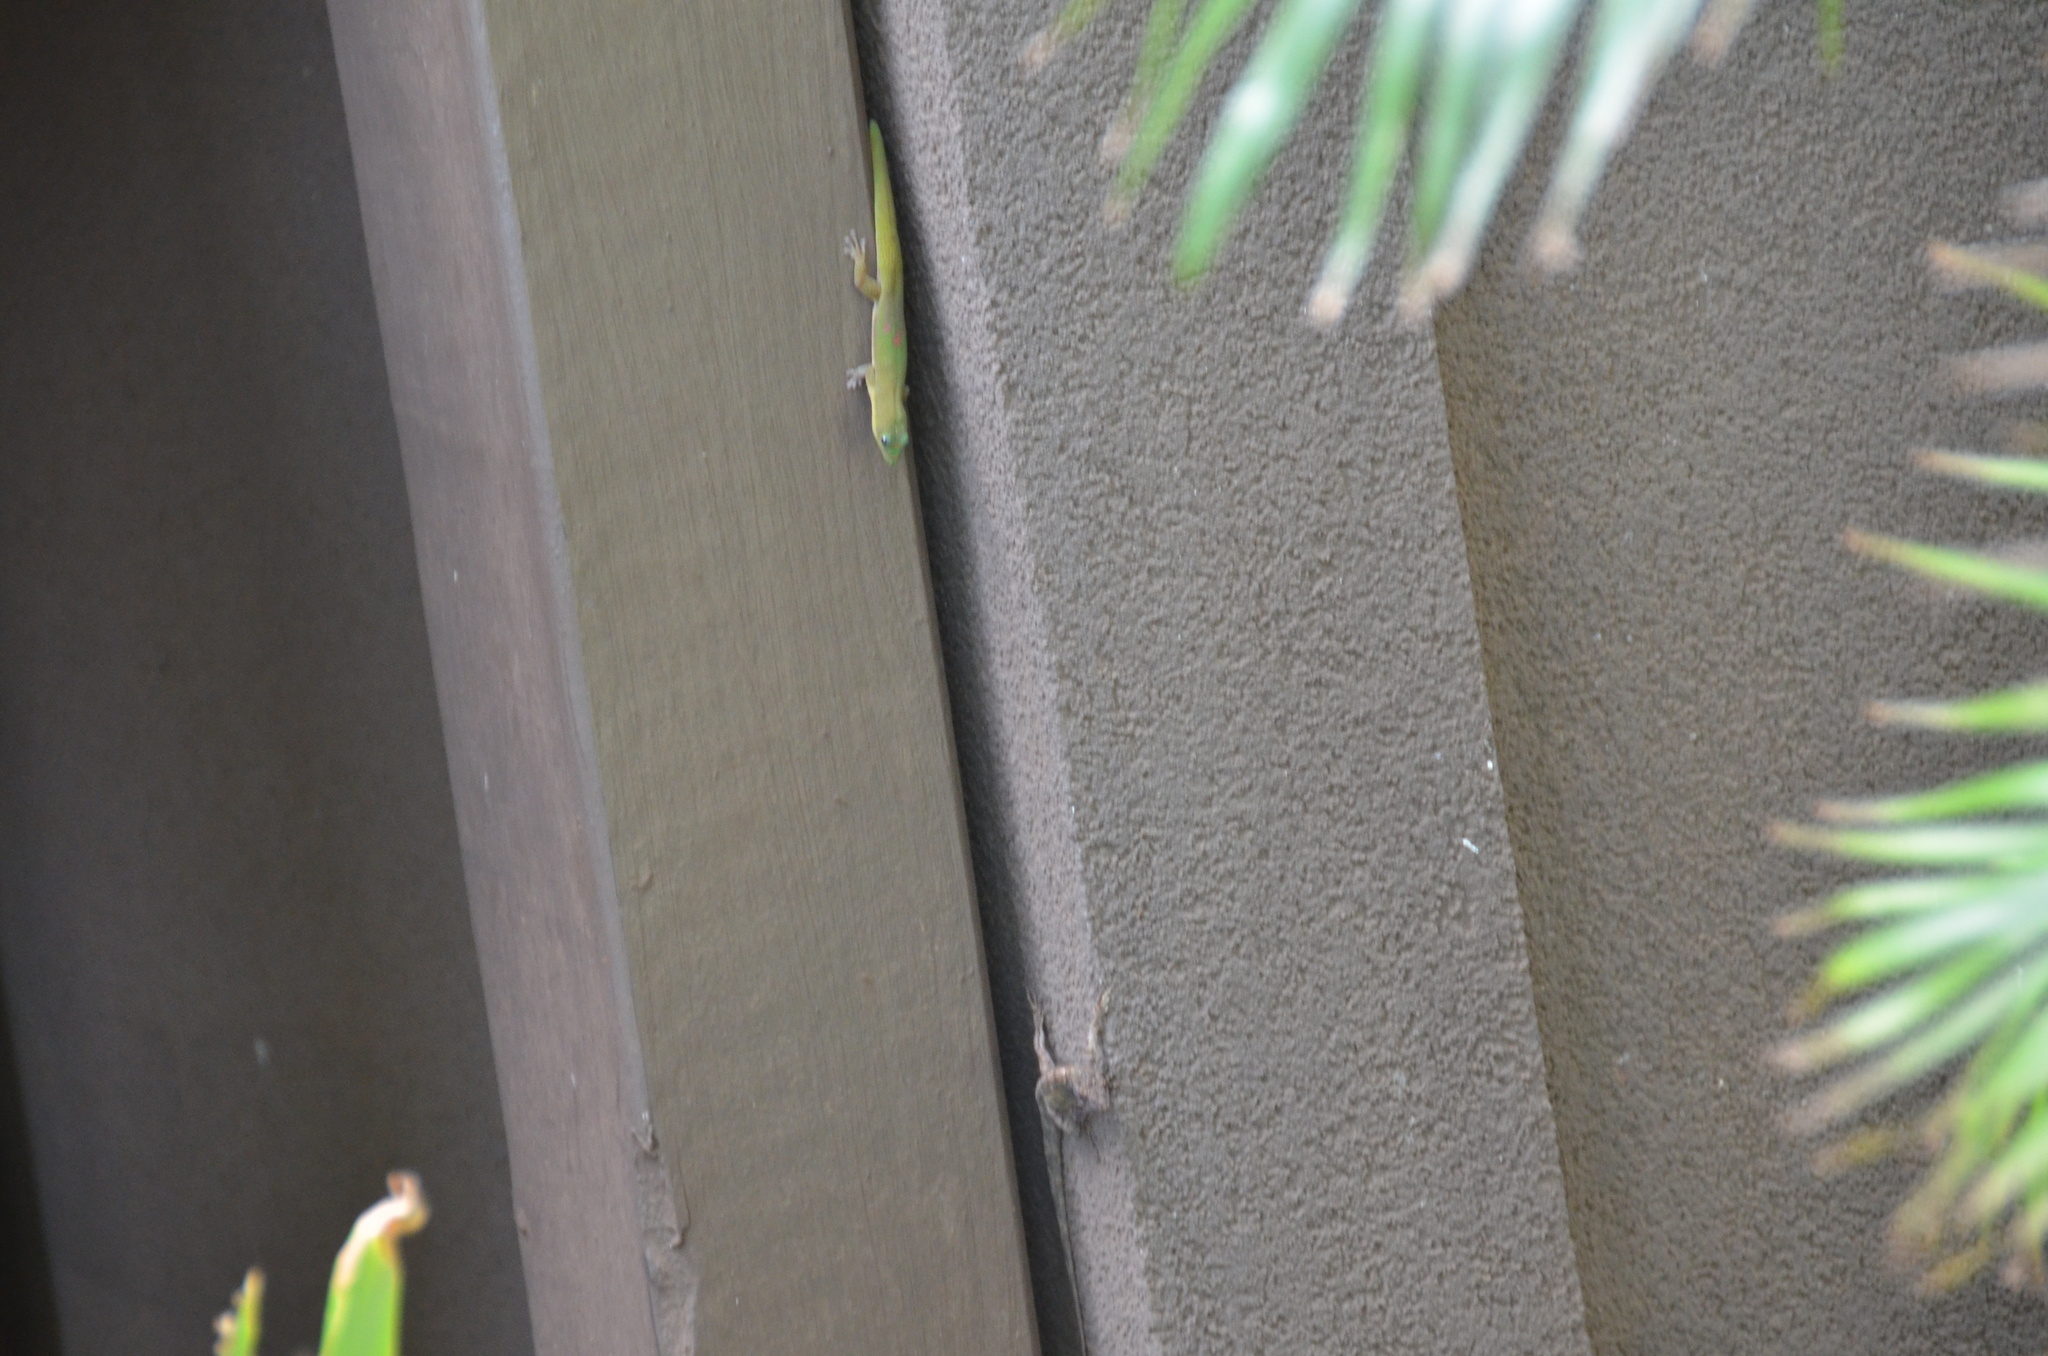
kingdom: Animalia
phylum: Chordata
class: Squamata
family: Dactyloidae
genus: Anolis
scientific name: Anolis sagrei
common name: Brown anole
